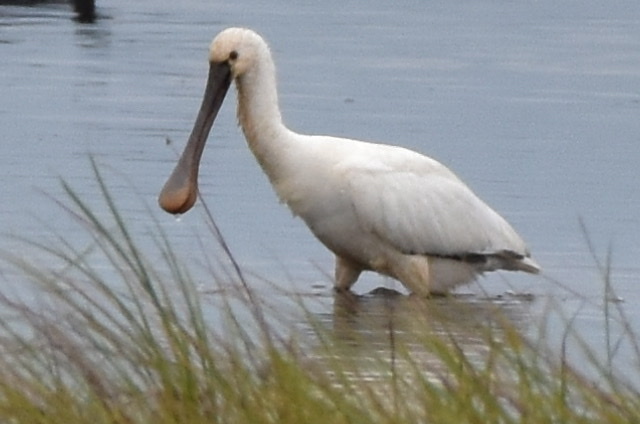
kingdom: Animalia
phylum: Chordata
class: Aves
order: Pelecaniformes
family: Threskiornithidae
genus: Platalea
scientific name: Platalea leucorodia
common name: Eurasian spoonbill
